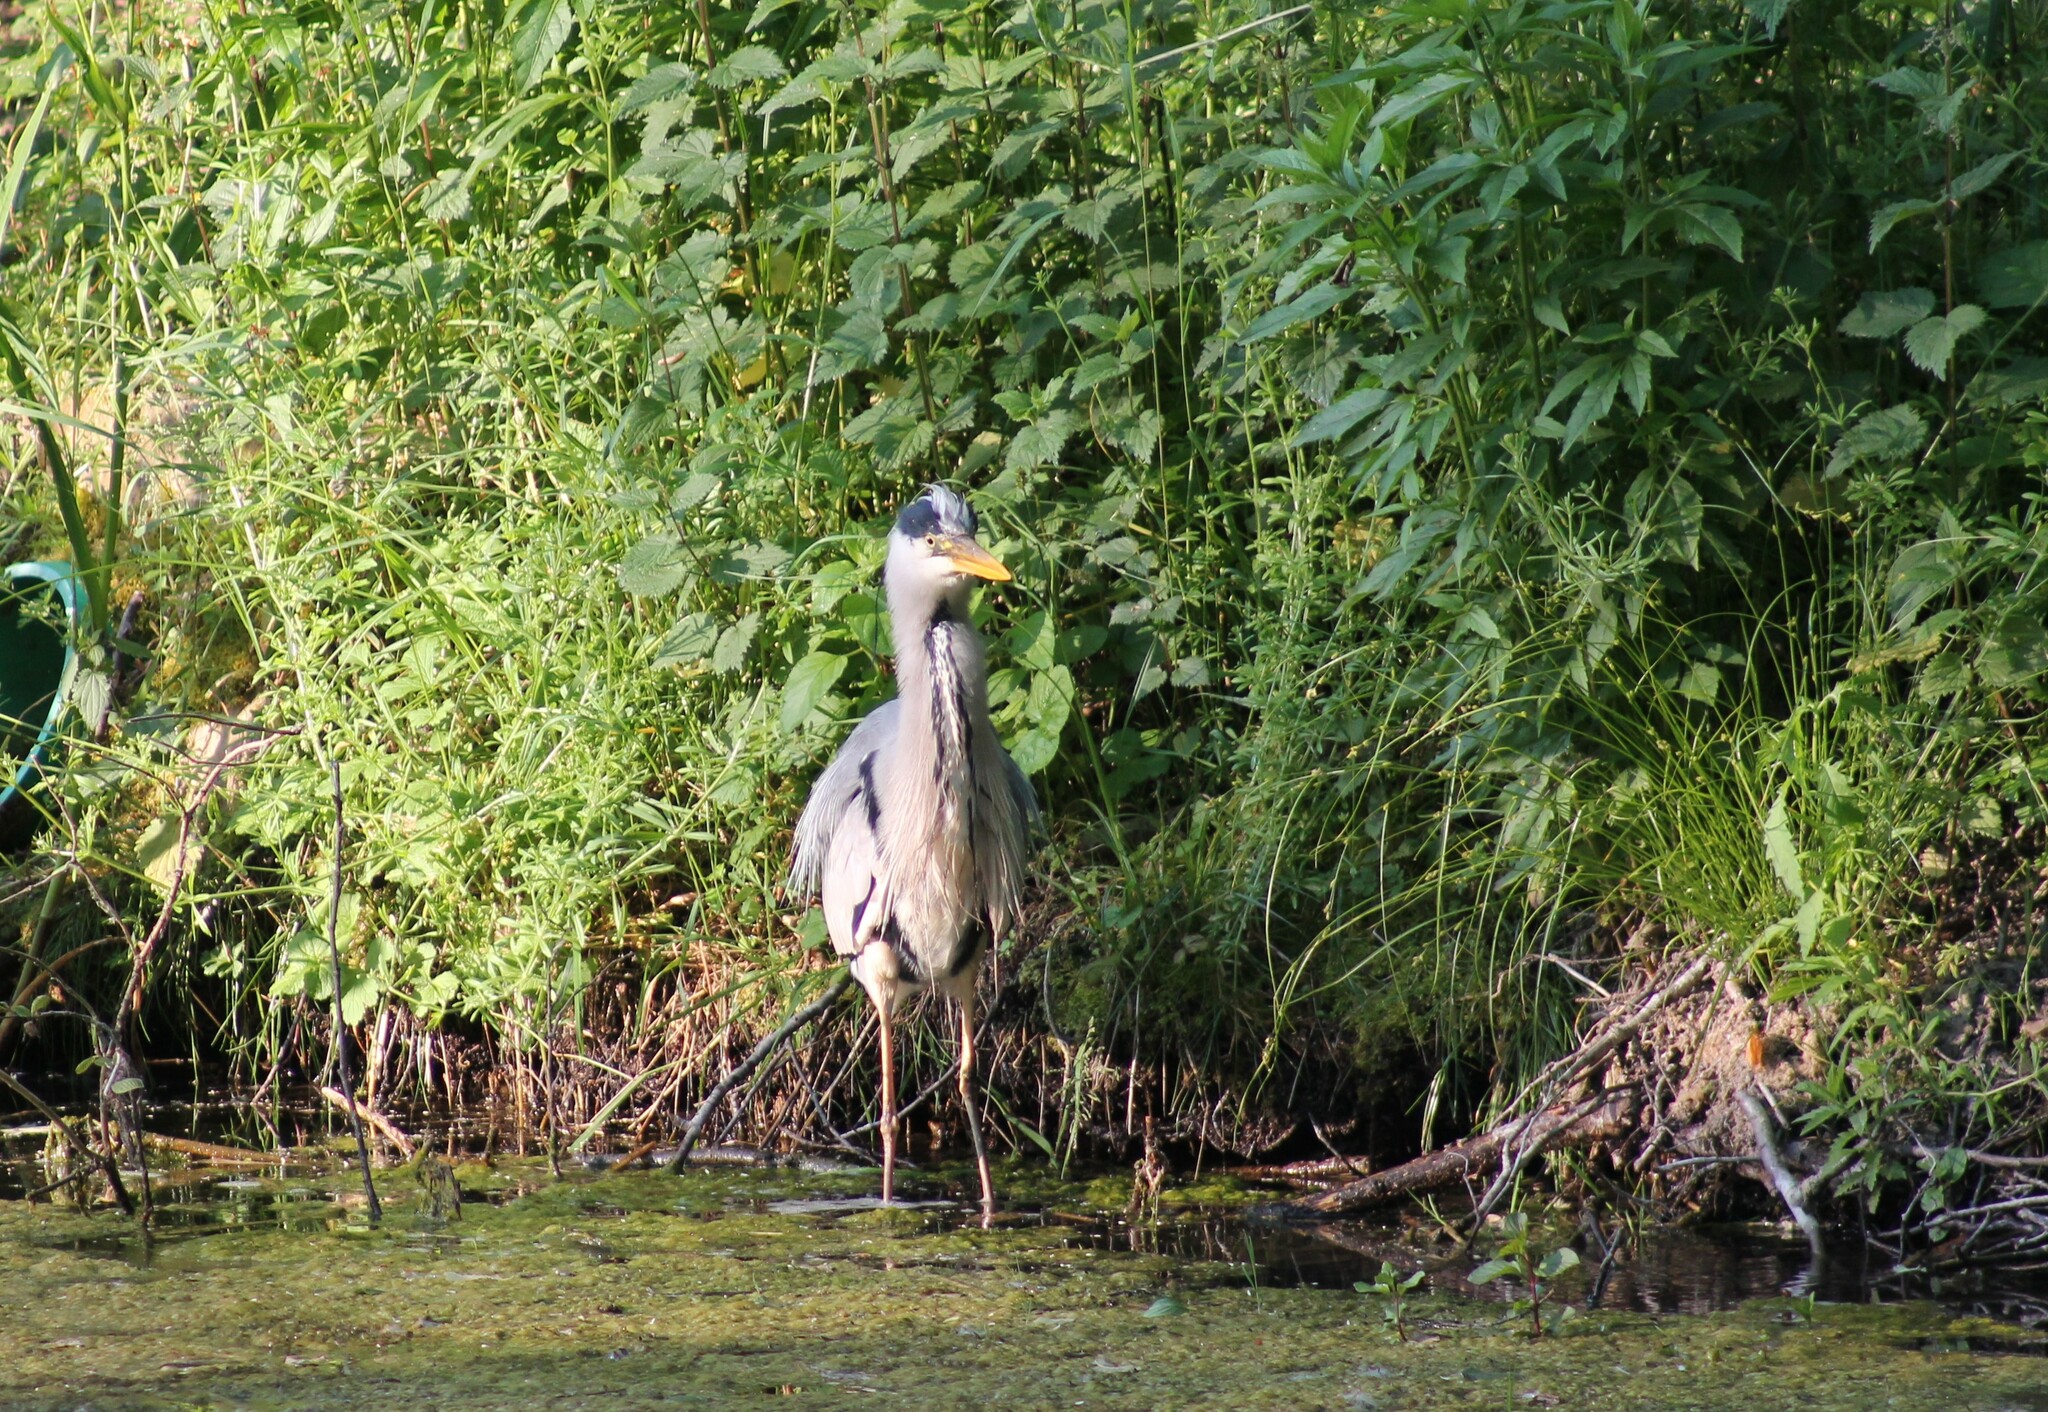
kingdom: Animalia
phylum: Chordata
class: Aves
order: Pelecaniformes
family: Ardeidae
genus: Ardea
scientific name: Ardea cinerea
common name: Grey heron
